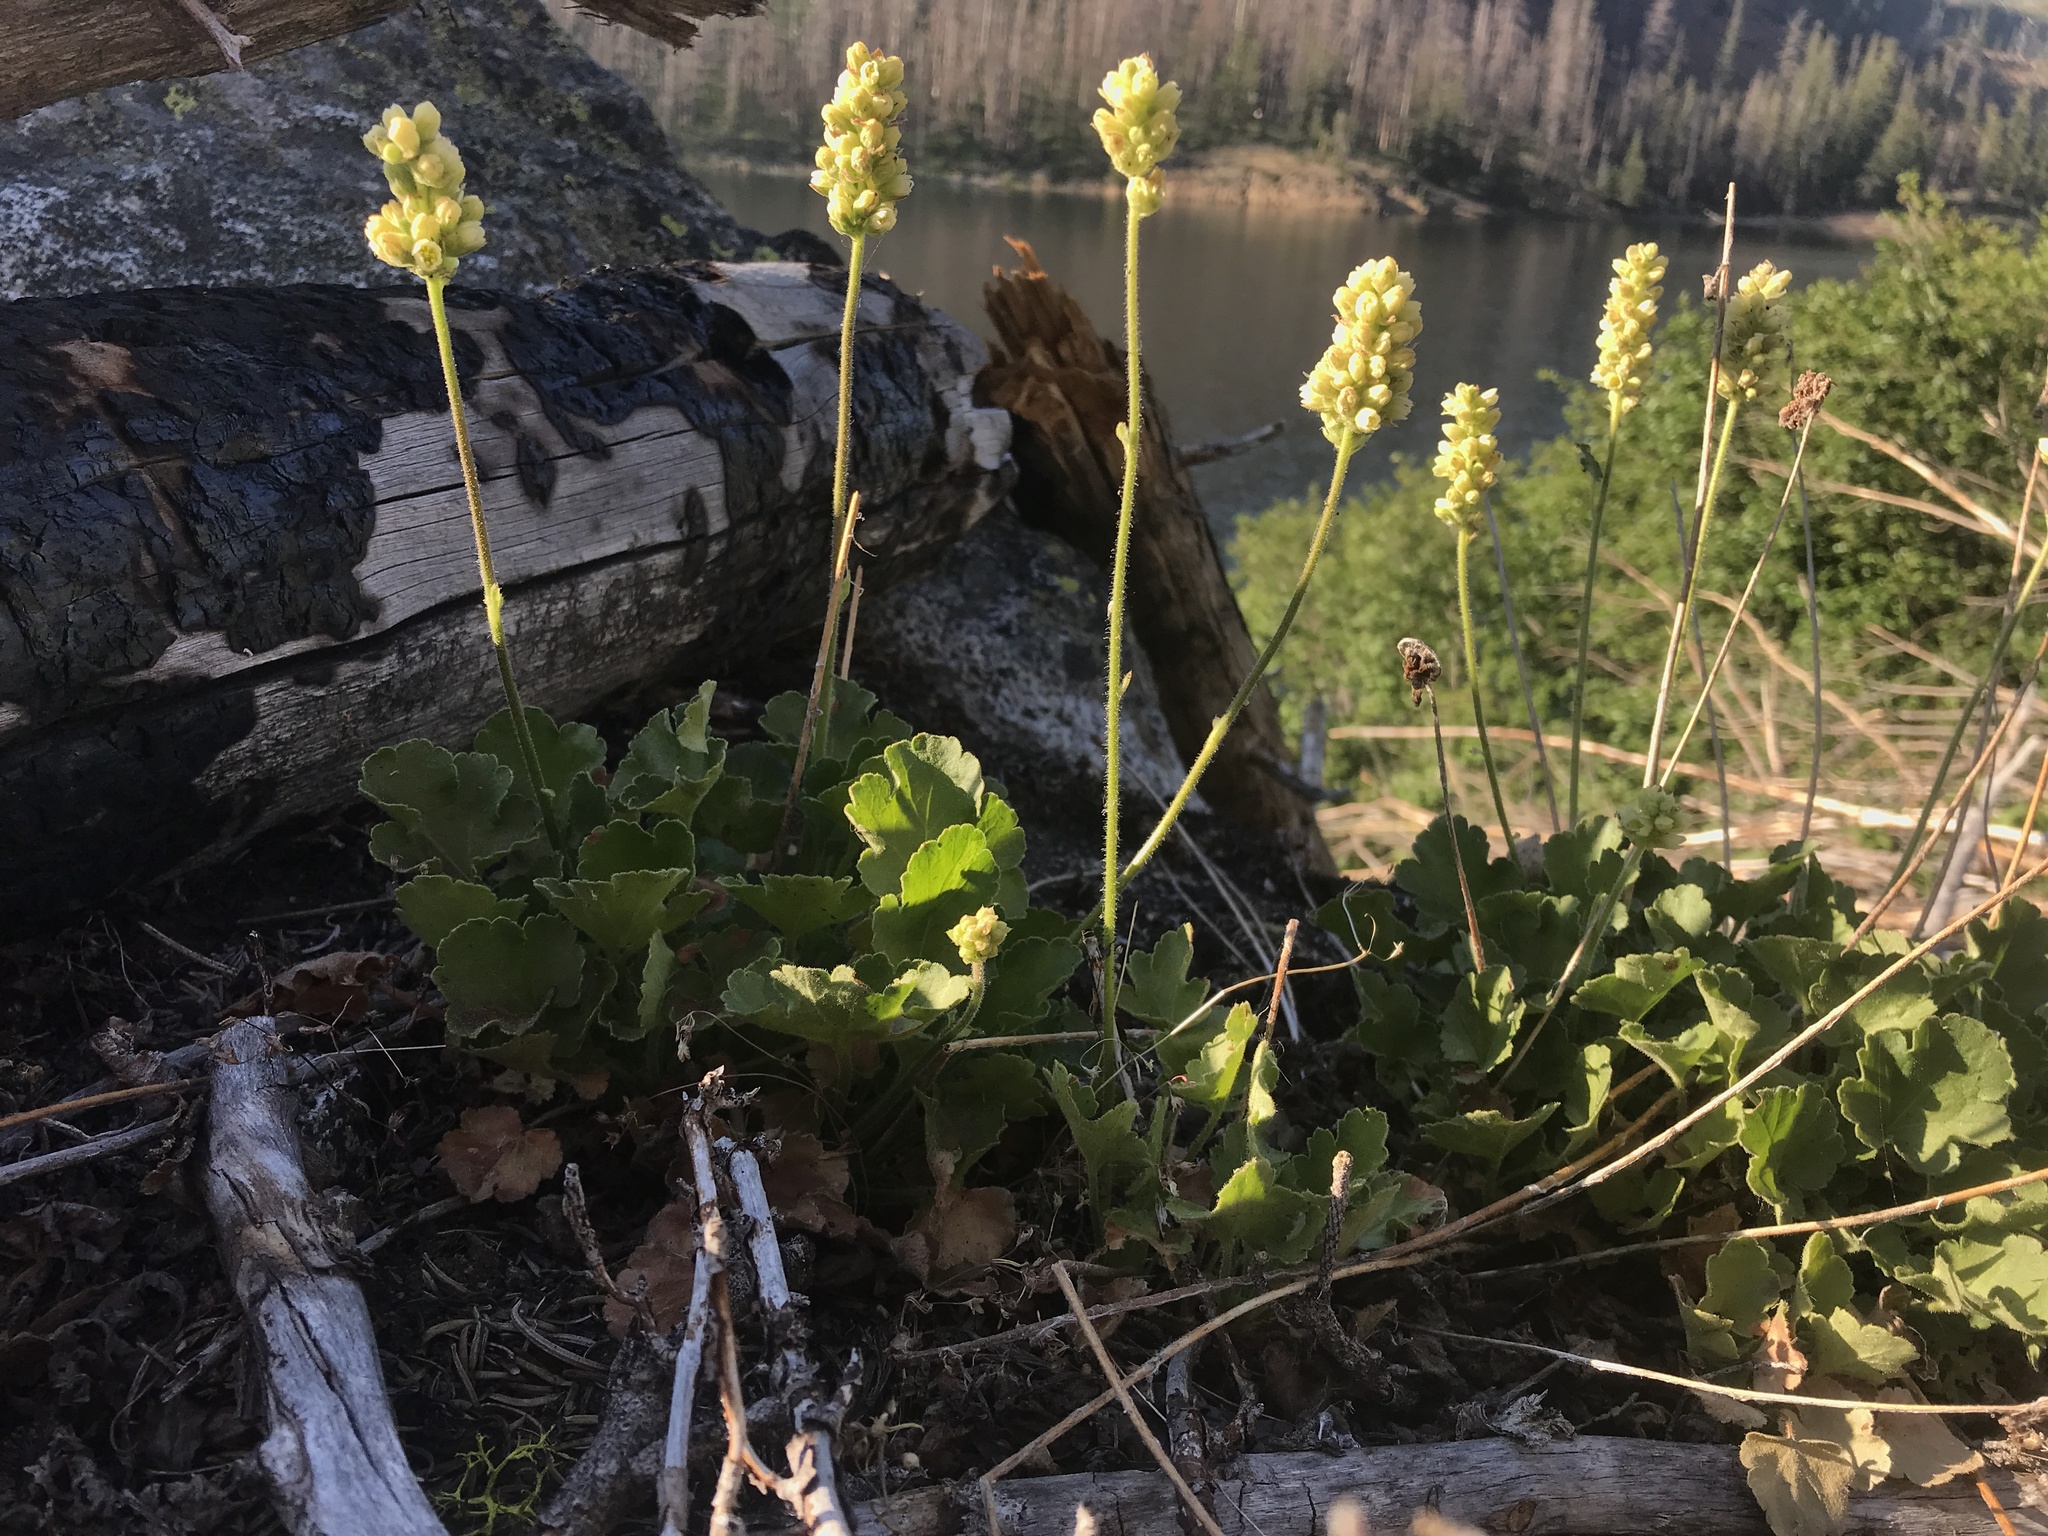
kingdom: Plantae
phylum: Tracheophyta
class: Magnoliopsida
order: Saxifragales
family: Saxifragaceae
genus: Heuchera
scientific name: Heuchera cylindrica
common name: Mat alumroot
